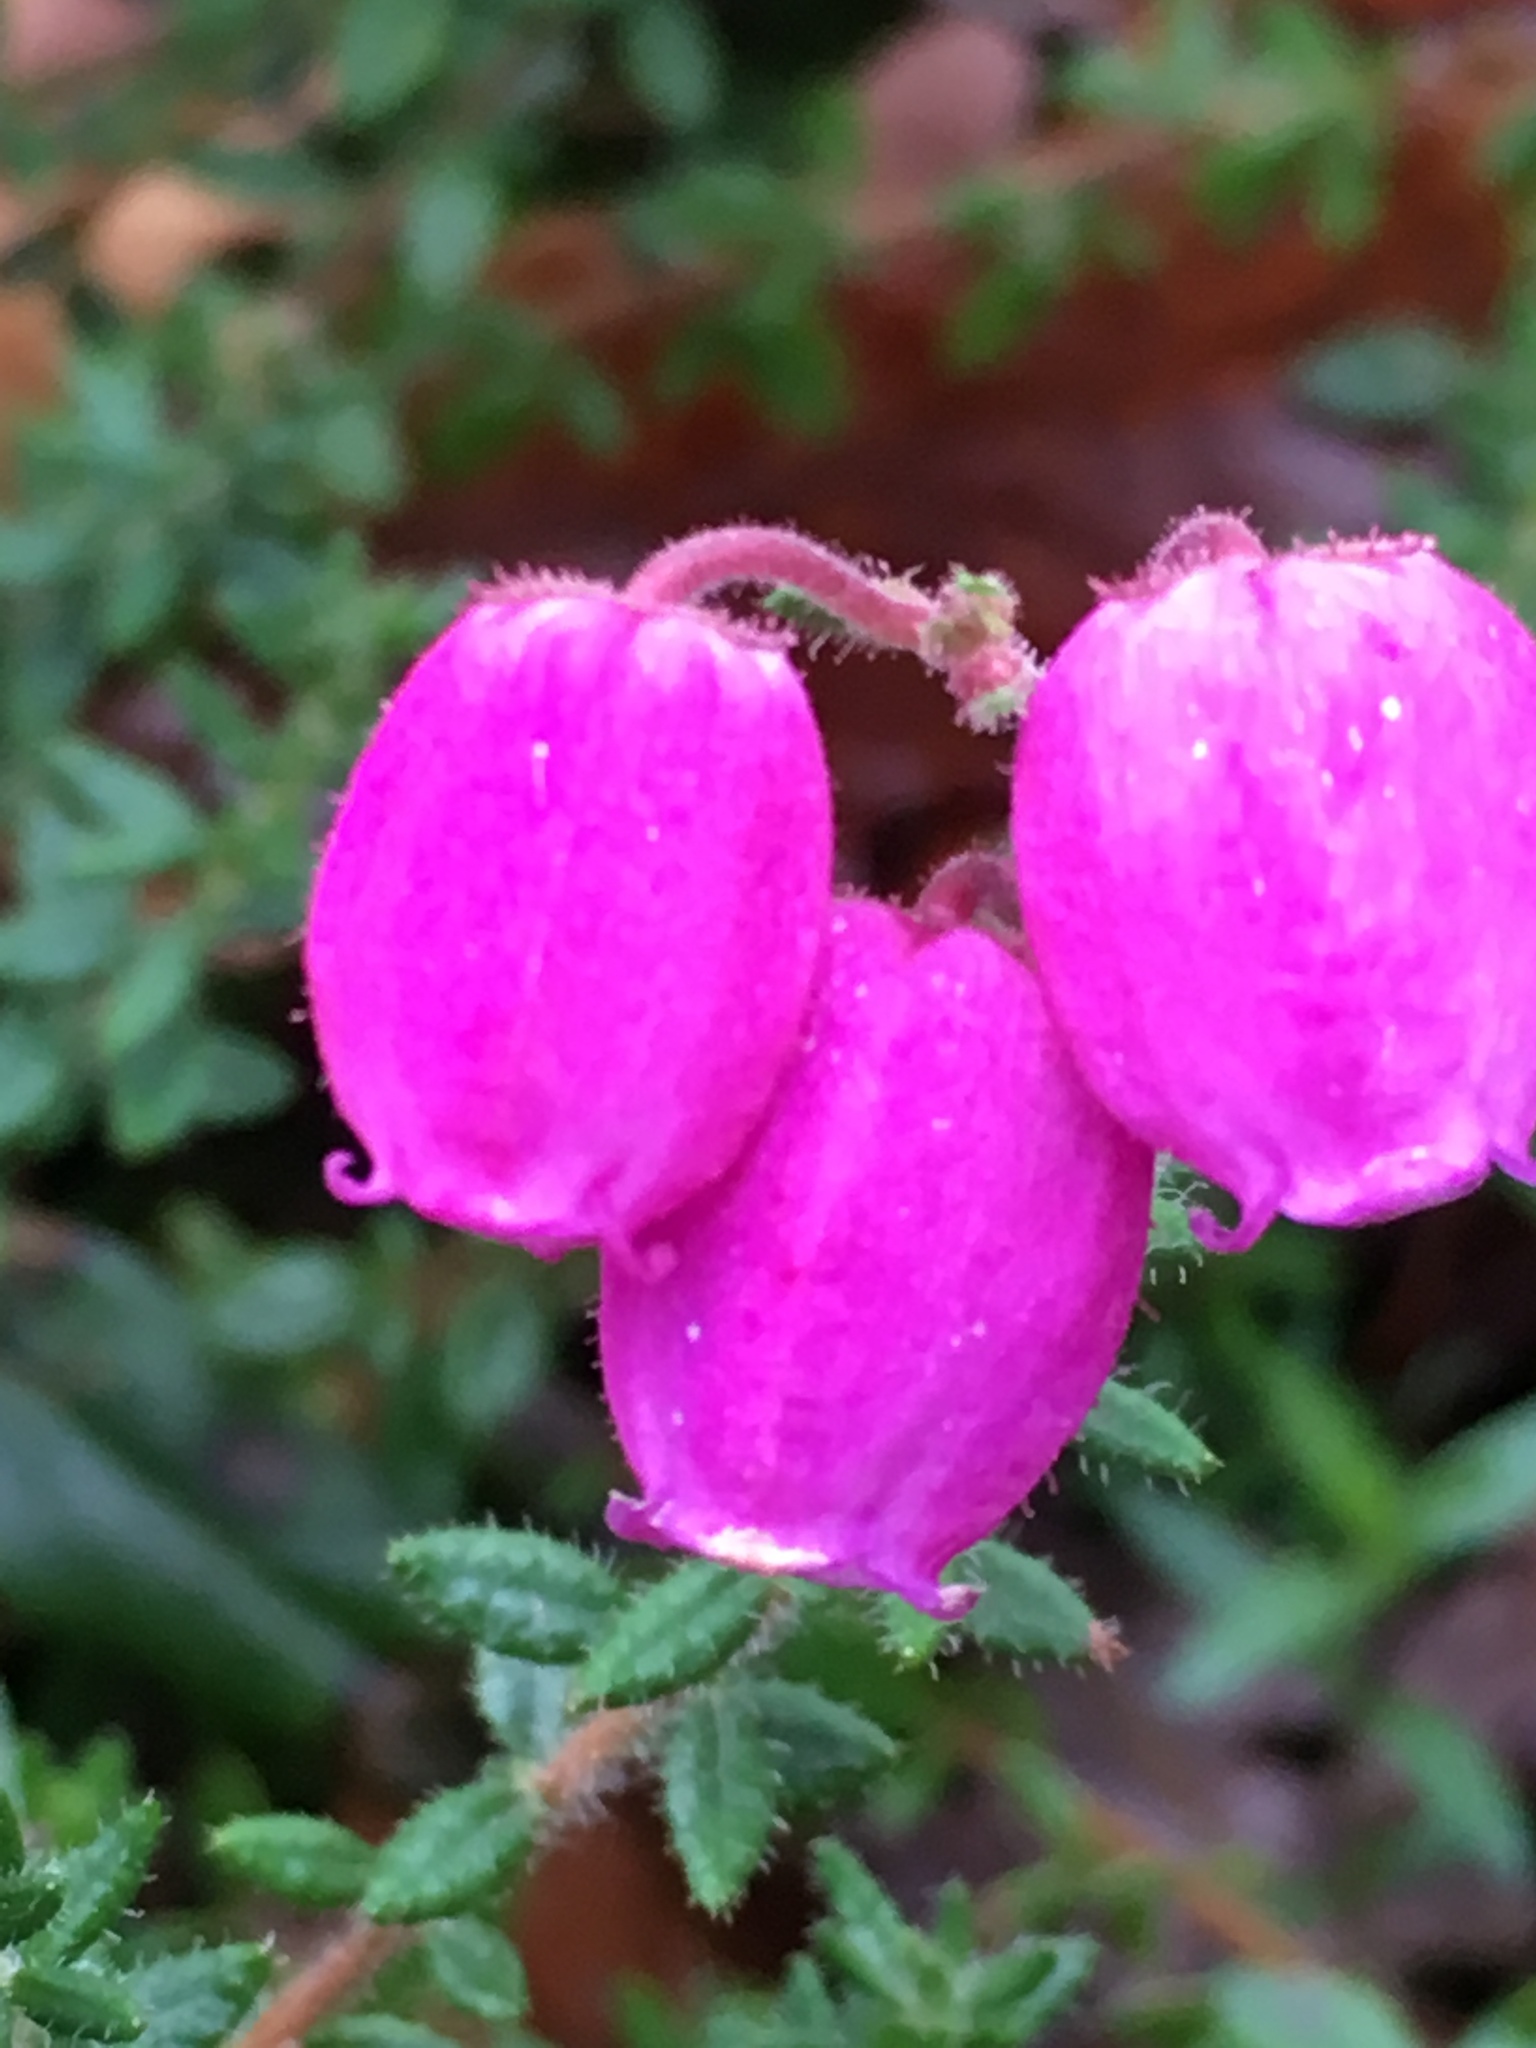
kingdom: Plantae
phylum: Tracheophyta
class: Magnoliopsida
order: Ericales
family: Ericaceae
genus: Daboecia
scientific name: Daboecia cantabrica
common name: St. dabeoc's-heath
